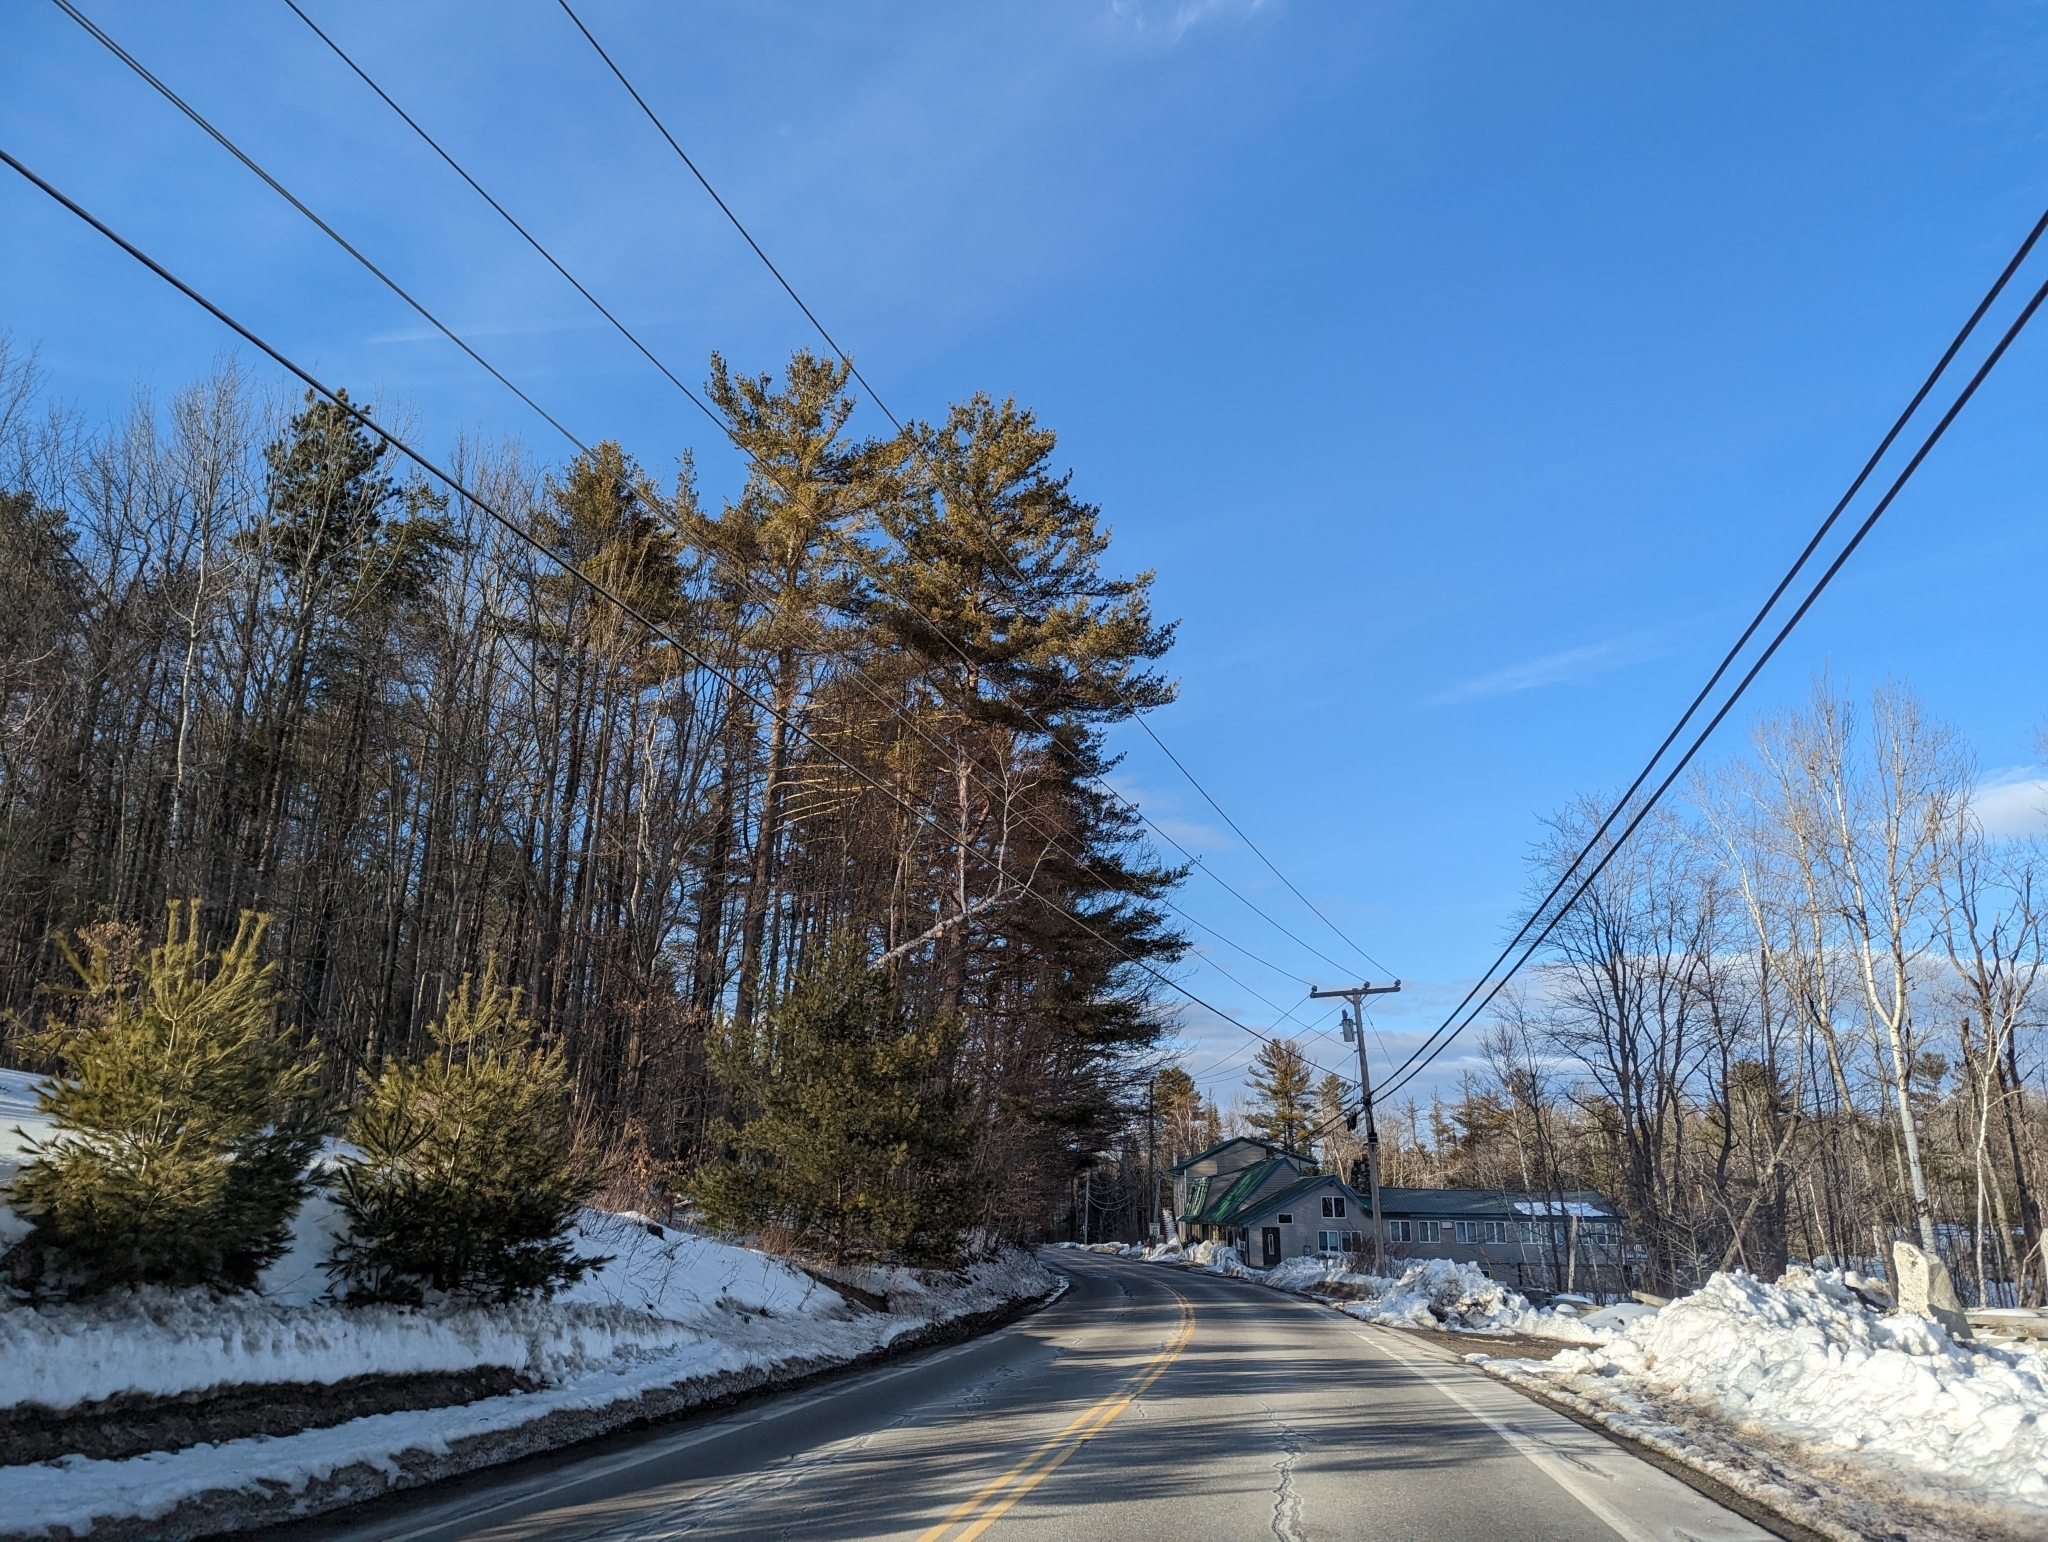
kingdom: Plantae
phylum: Tracheophyta
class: Pinopsida
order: Pinales
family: Pinaceae
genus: Pinus
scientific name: Pinus strobus
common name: Weymouth pine
